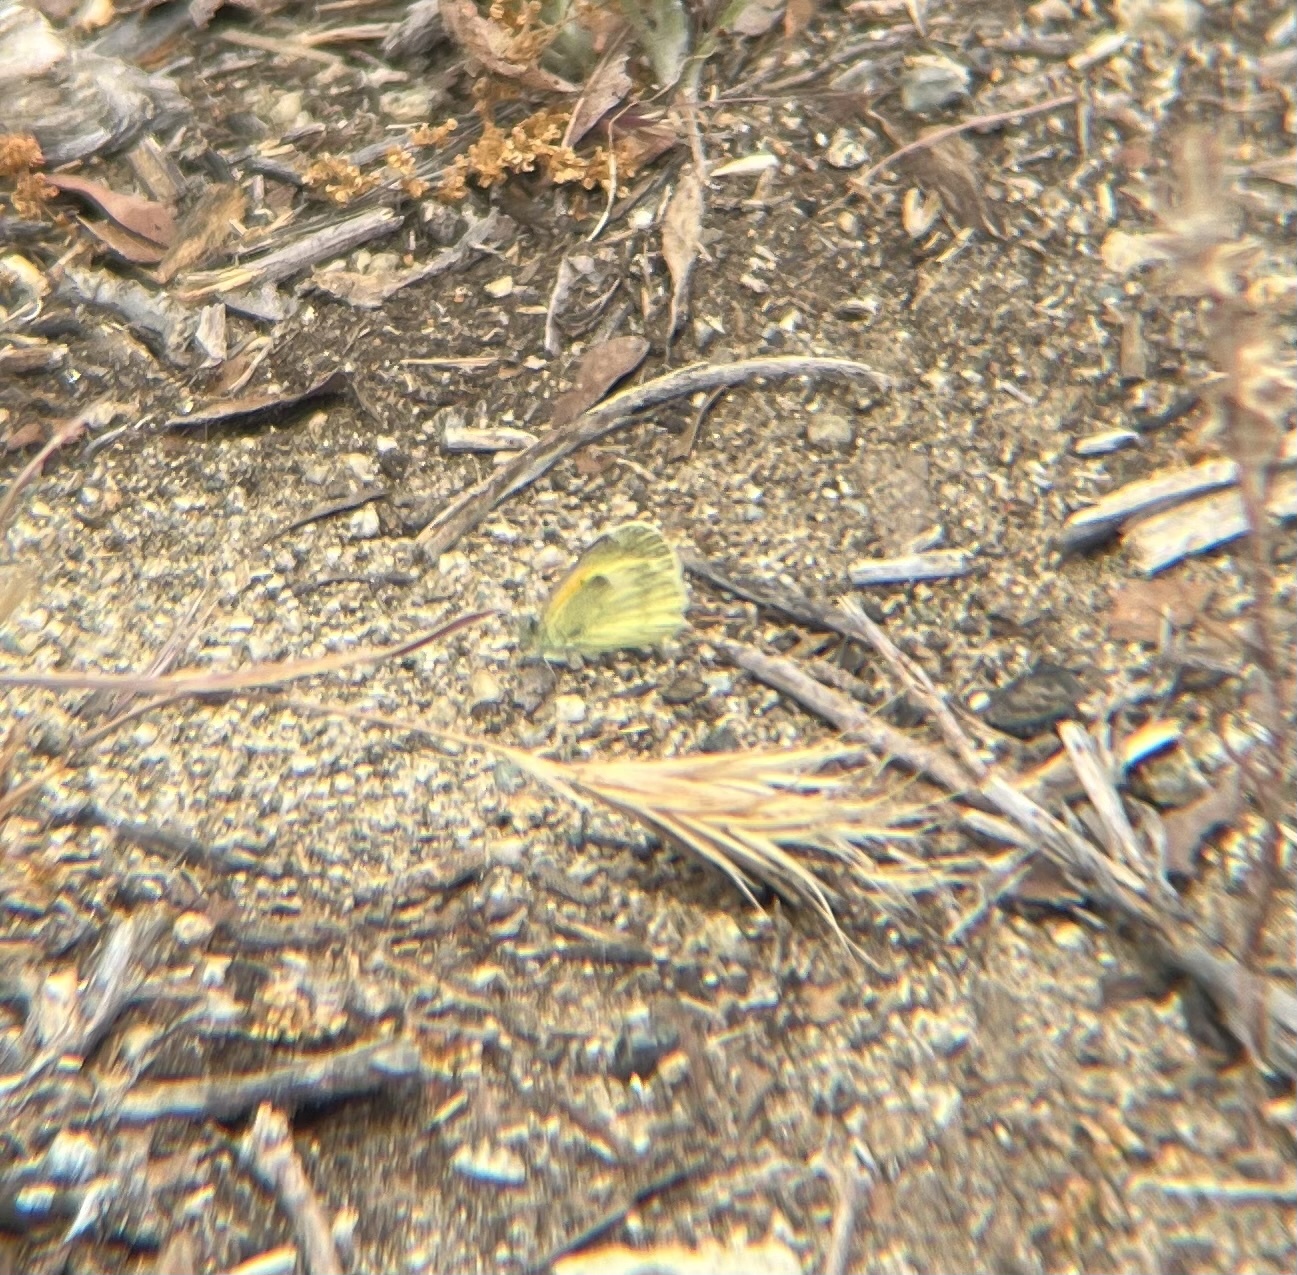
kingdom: Animalia
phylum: Arthropoda
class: Insecta
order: Lepidoptera
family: Pieridae
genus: Nathalis
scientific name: Nathalis iole
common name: Dainty sulphur
